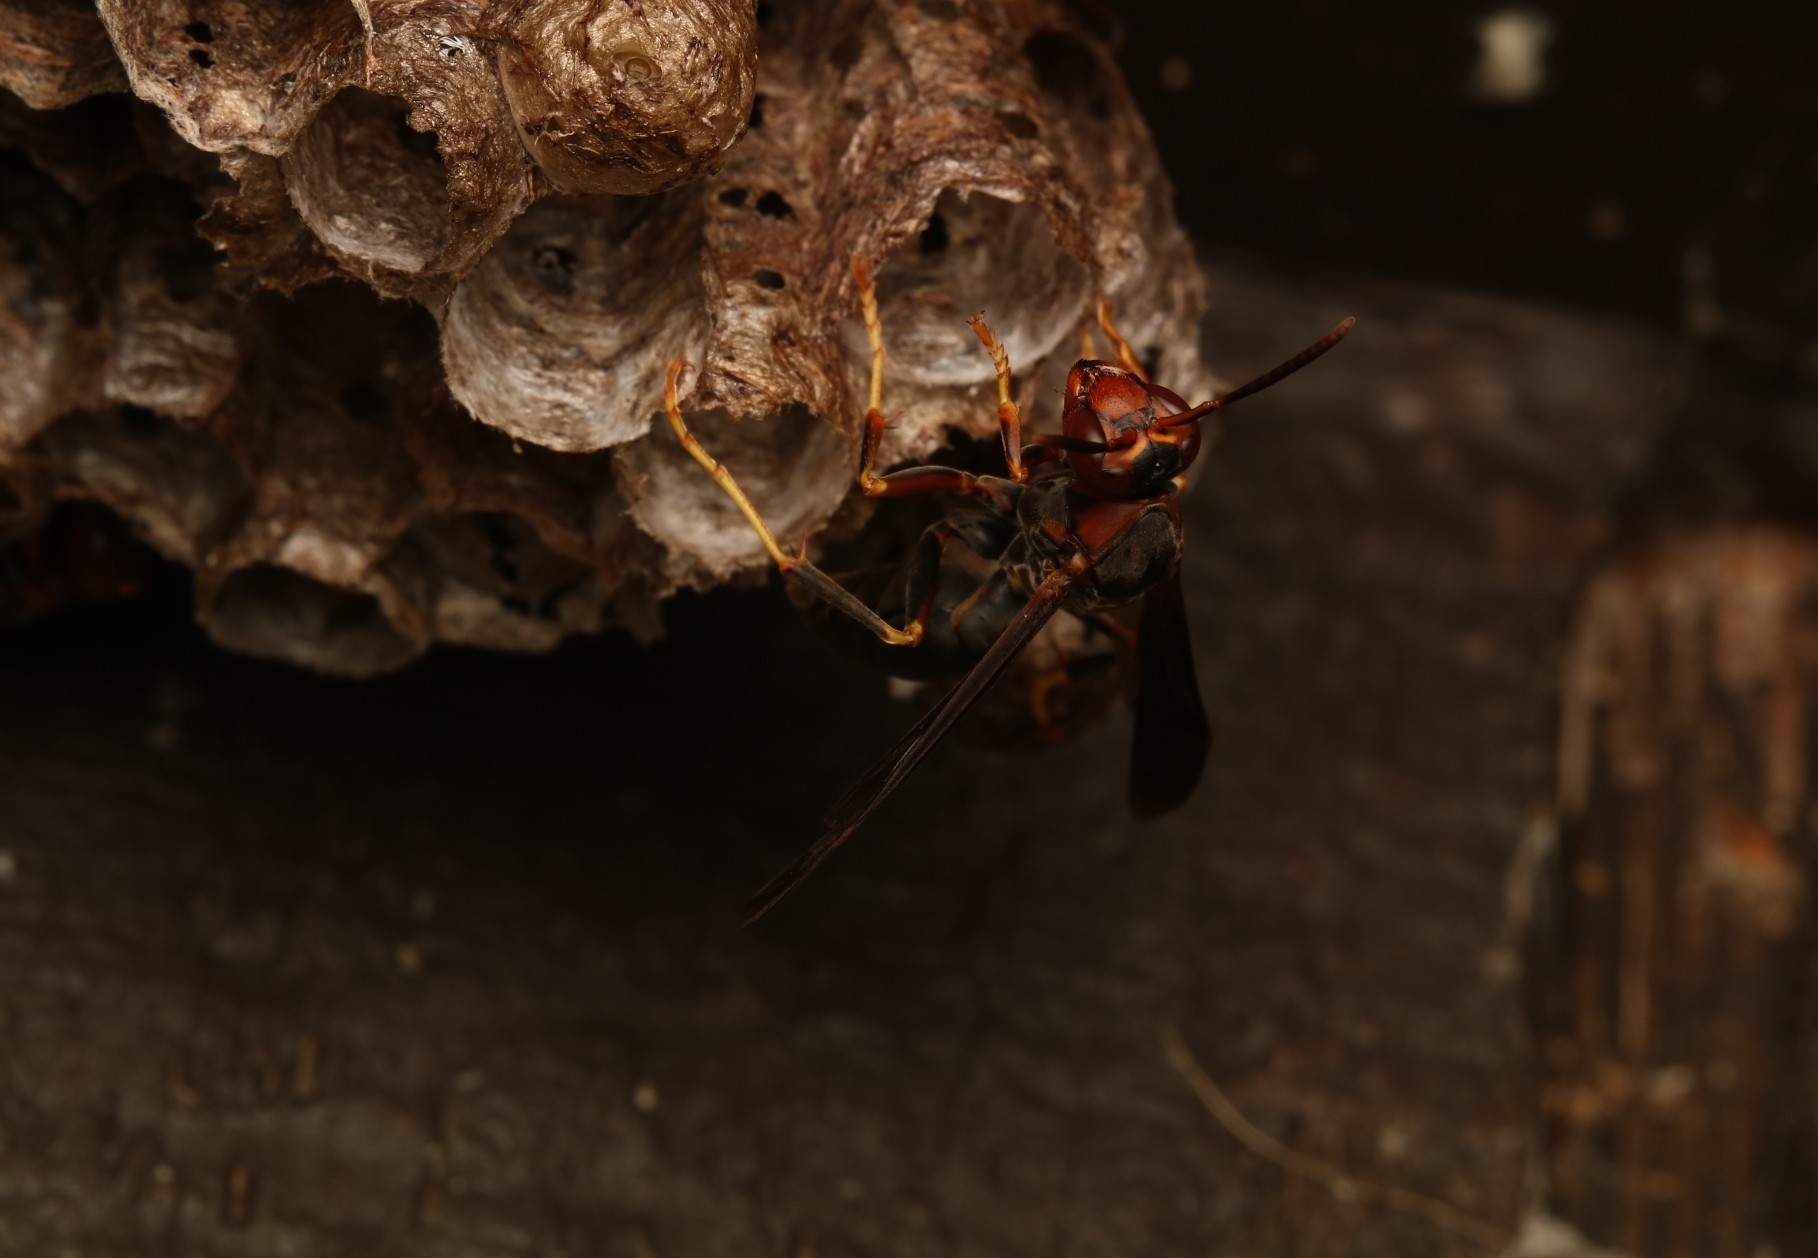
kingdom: Animalia
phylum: Arthropoda
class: Insecta
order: Hymenoptera
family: Eumenidae
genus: Polistes
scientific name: Polistes metricus
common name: Metric paper wasp
